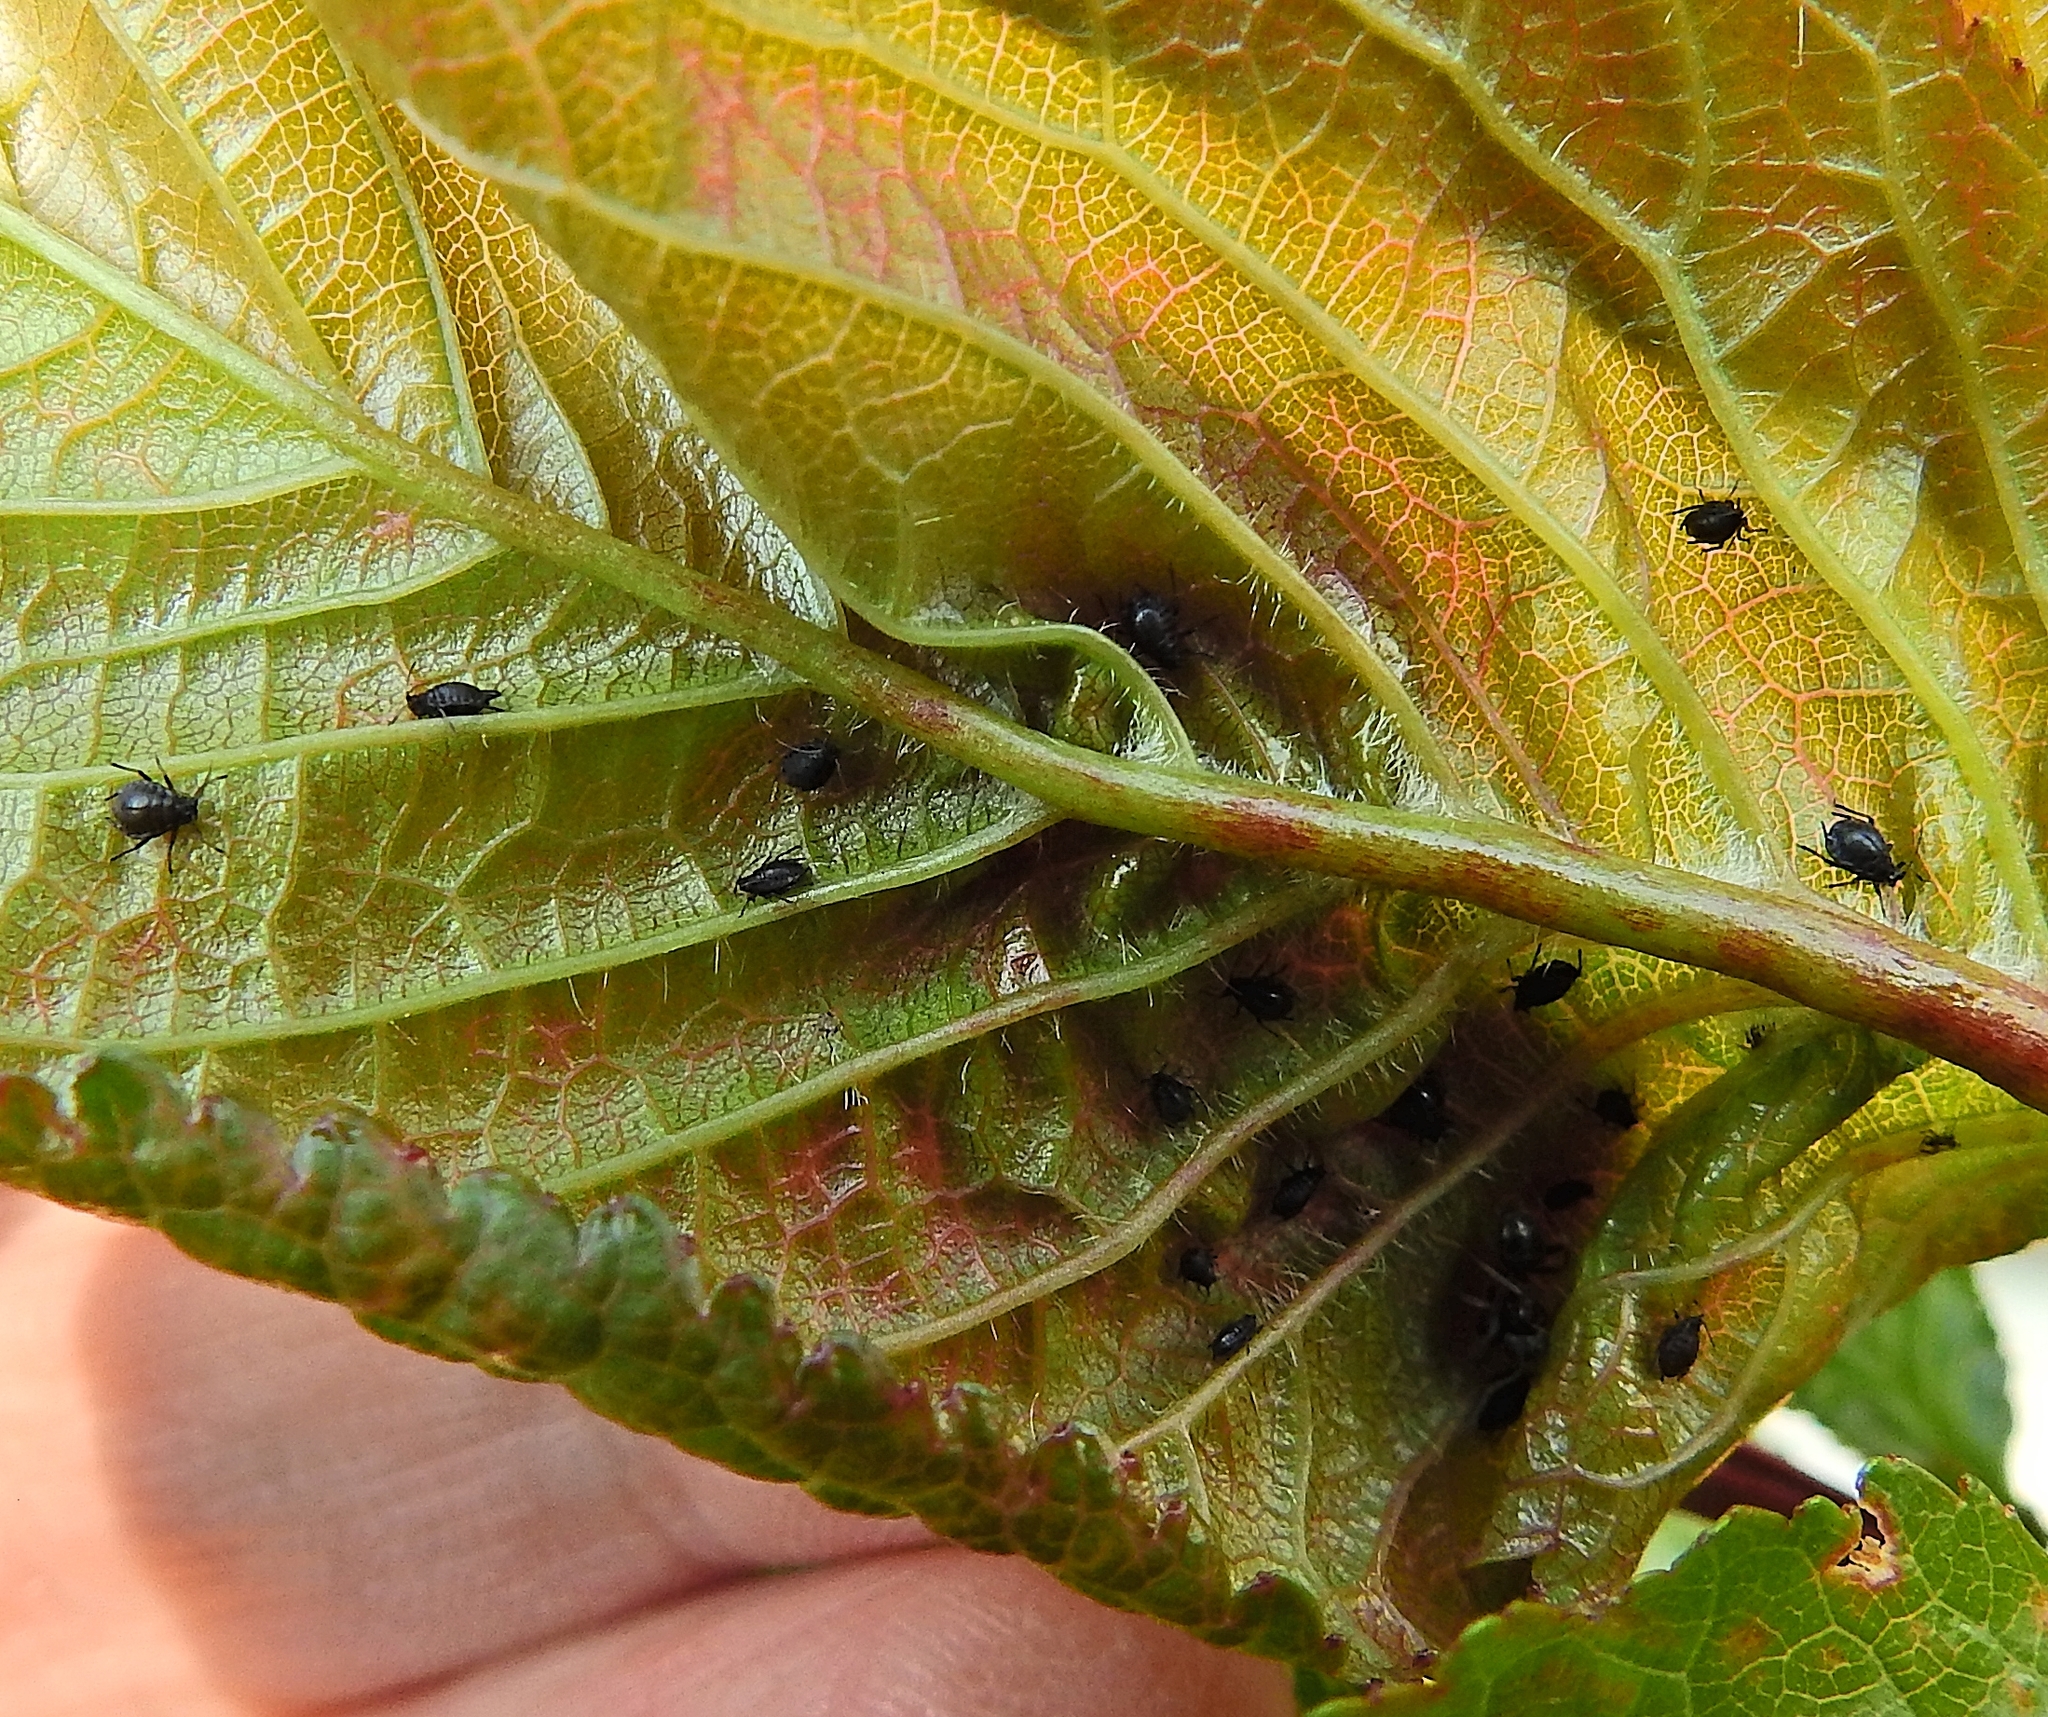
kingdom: Animalia
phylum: Arthropoda
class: Insecta
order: Hemiptera
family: Aphididae
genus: Myzus
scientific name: Myzus cerasi
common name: Black cherry aphid
